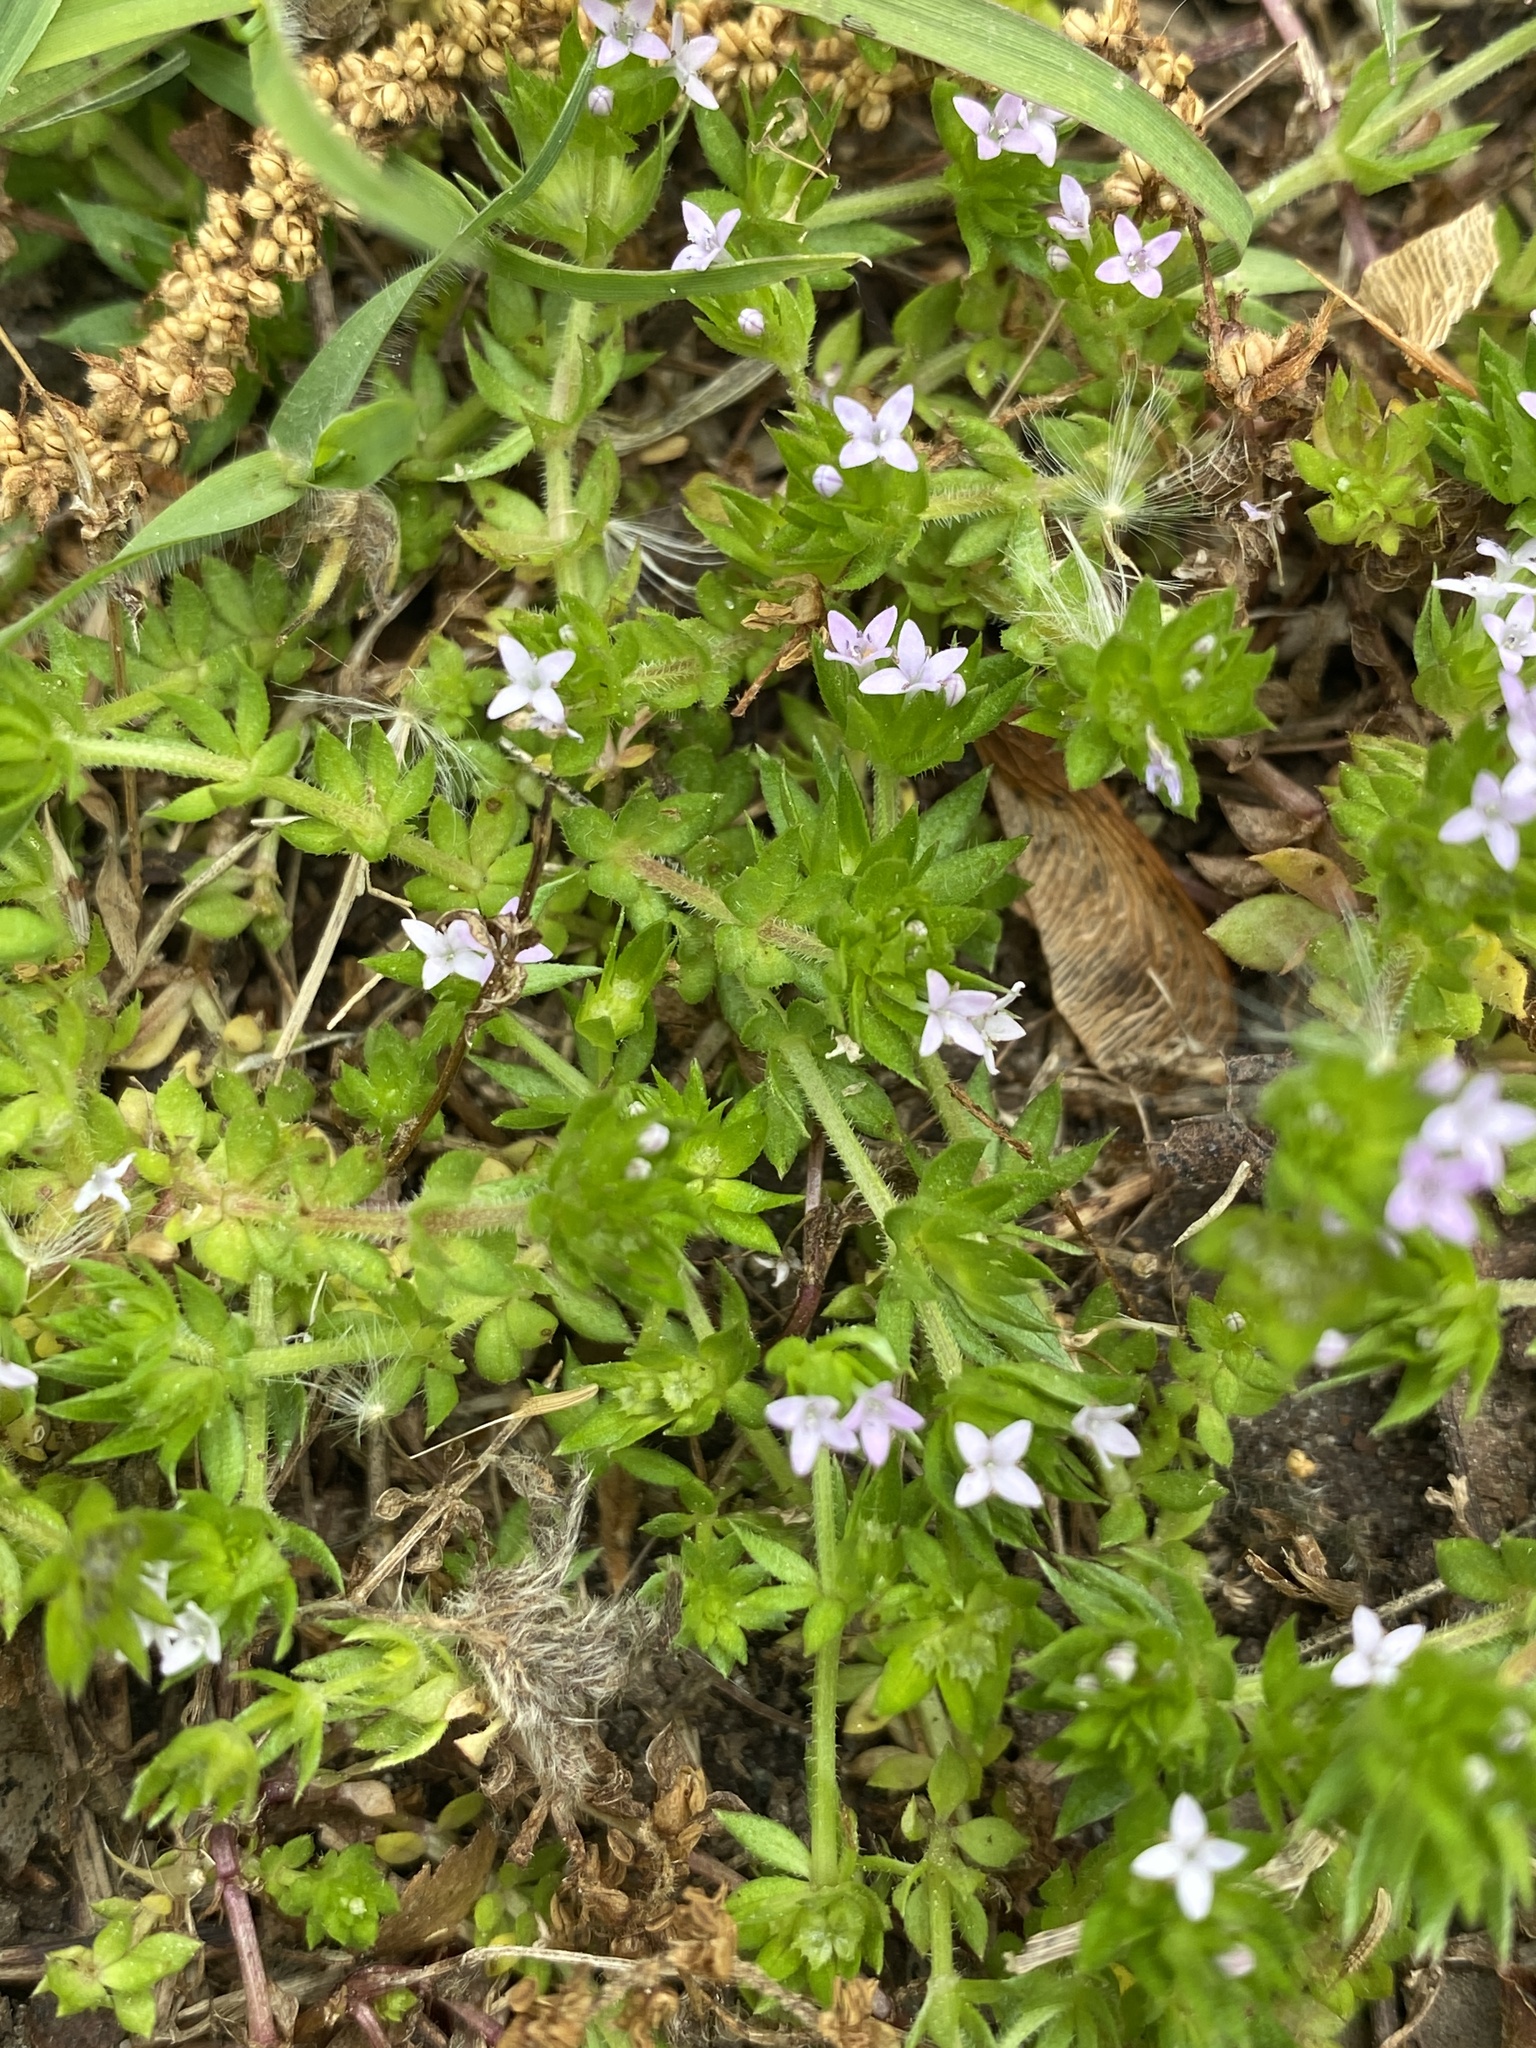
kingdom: Plantae
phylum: Tracheophyta
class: Magnoliopsida
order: Gentianales
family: Rubiaceae
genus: Sherardia
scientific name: Sherardia arvensis
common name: Field madder
